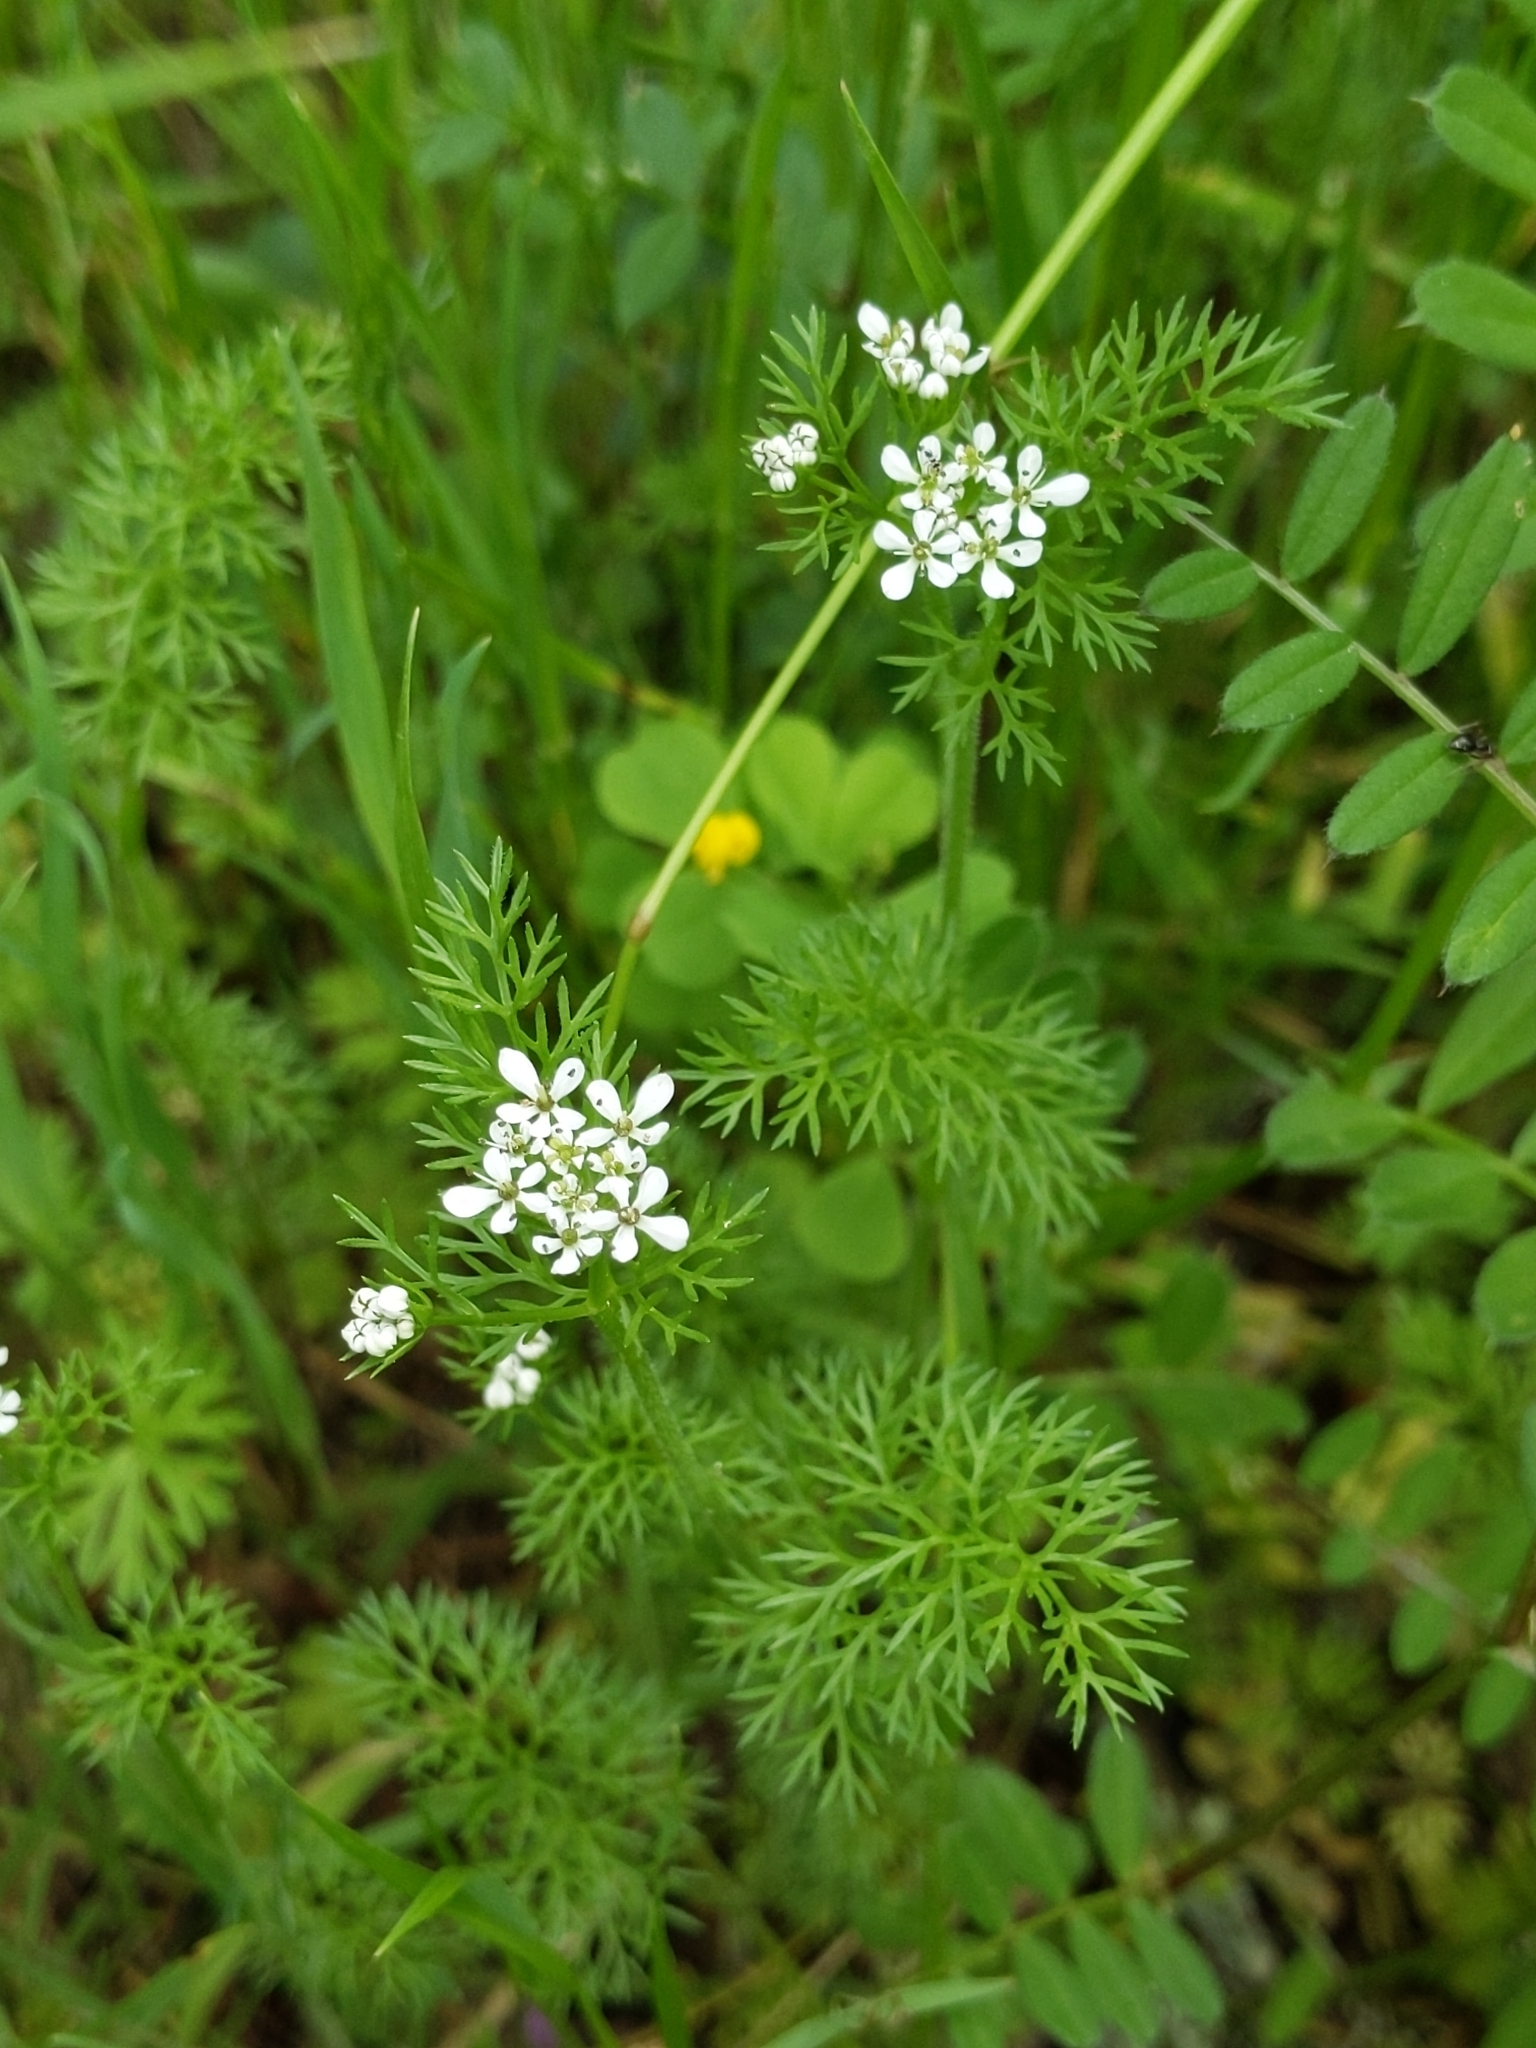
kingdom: Plantae
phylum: Tracheophyta
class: Magnoliopsida
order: Apiales
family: Apiaceae
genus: Scandix
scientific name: Scandix pecten-veneris
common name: Shepherd's-needle
